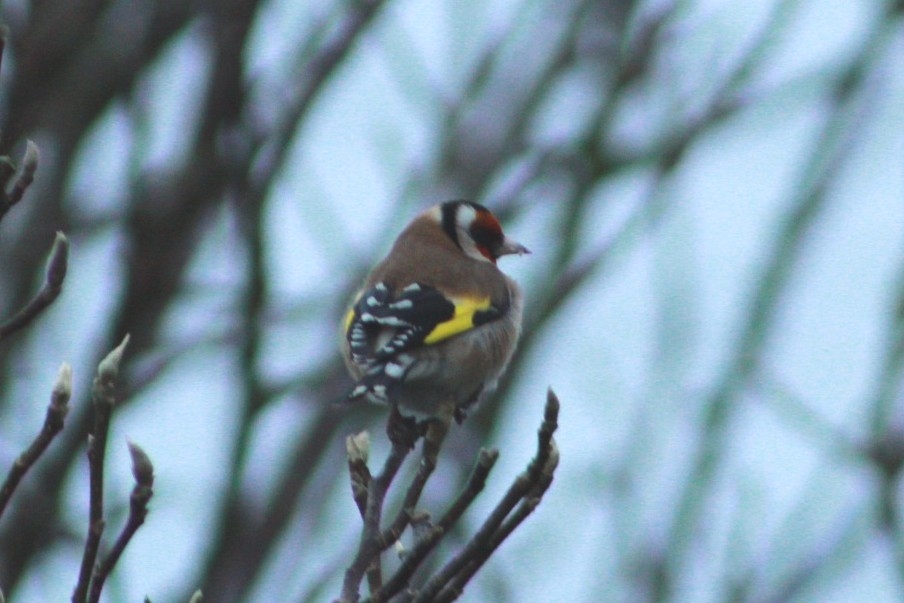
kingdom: Animalia
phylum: Chordata
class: Aves
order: Passeriformes
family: Fringillidae
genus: Carduelis
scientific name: Carduelis carduelis
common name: European goldfinch
